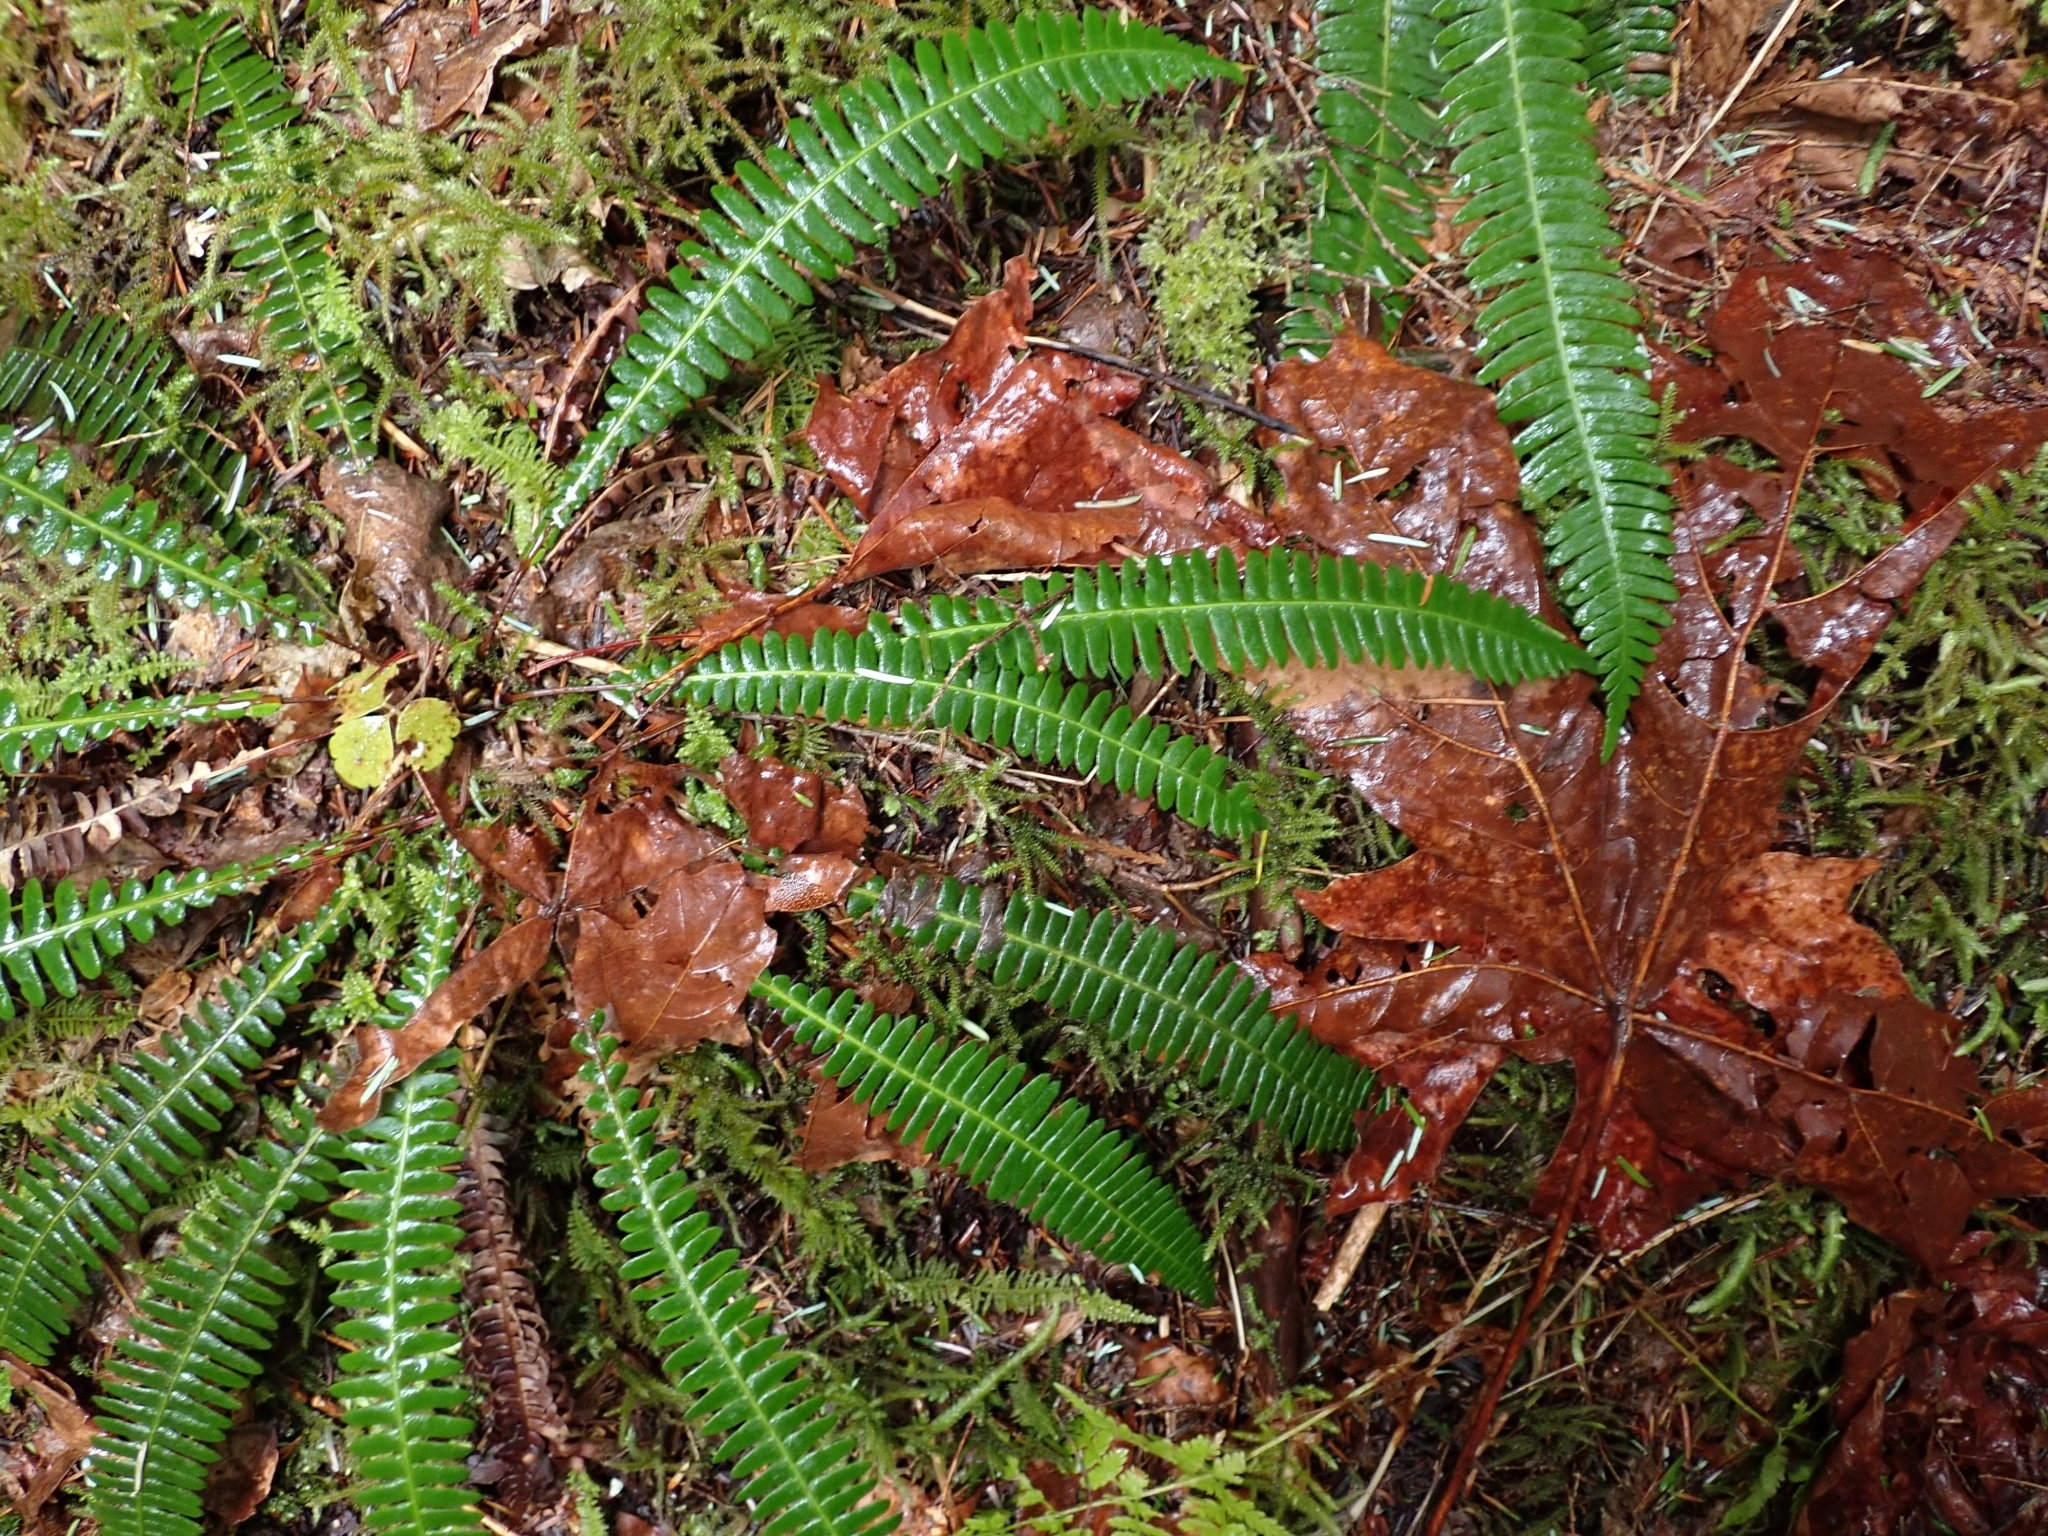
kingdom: Plantae
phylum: Tracheophyta
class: Polypodiopsida
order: Polypodiales
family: Blechnaceae
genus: Struthiopteris
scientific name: Struthiopteris spicant
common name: Deer fern
